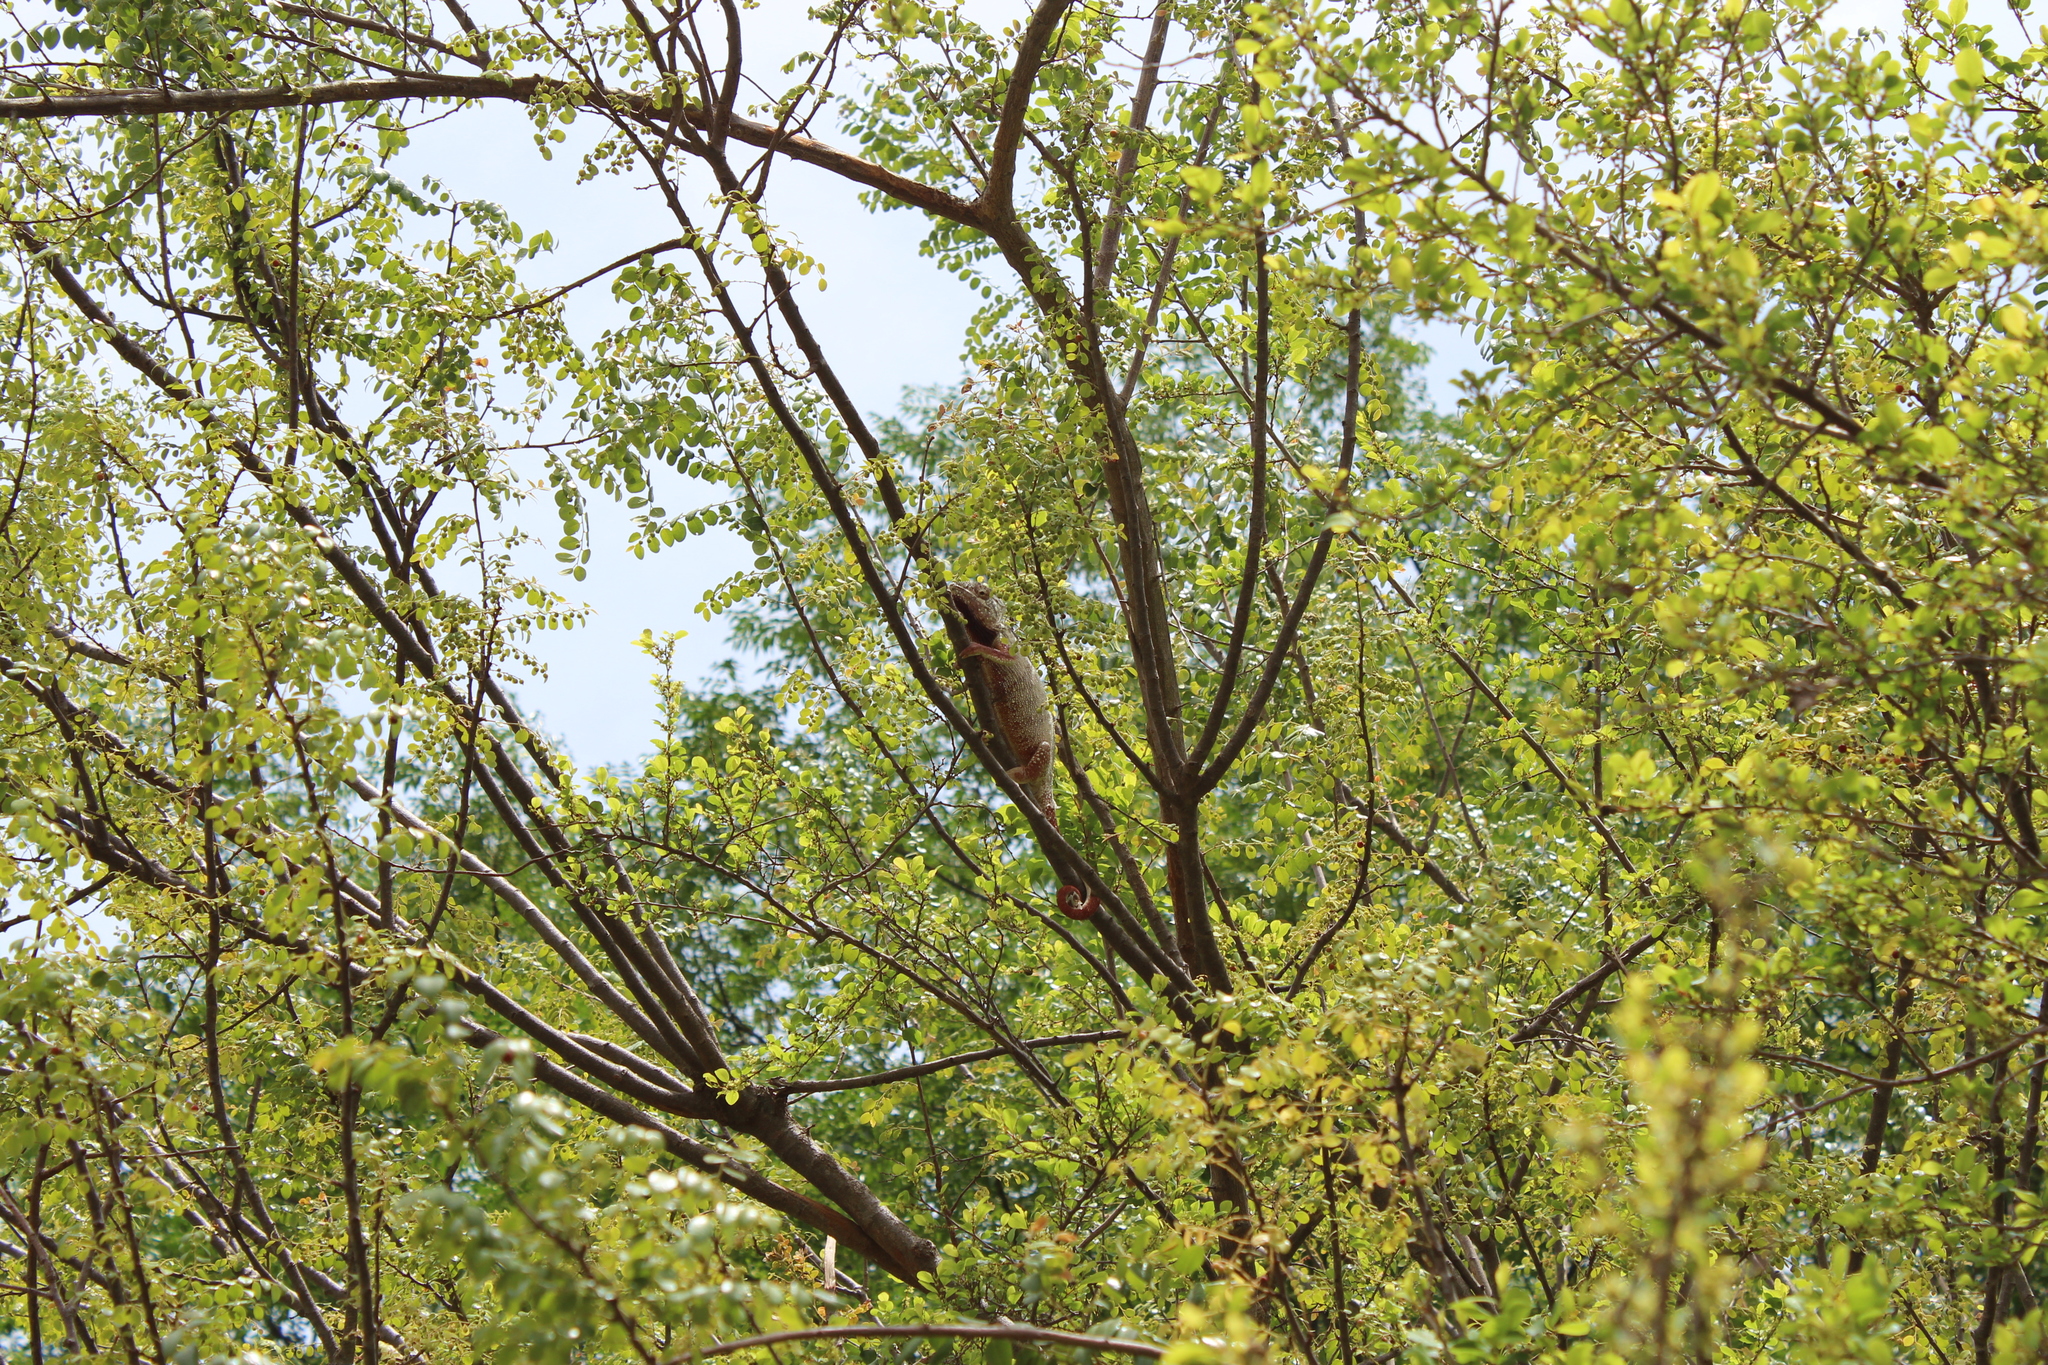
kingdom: Animalia
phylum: Chordata
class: Squamata
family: Chamaeleonidae
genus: Furcifer
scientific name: Furcifer oustaleti
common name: Oustalet's chameleon
